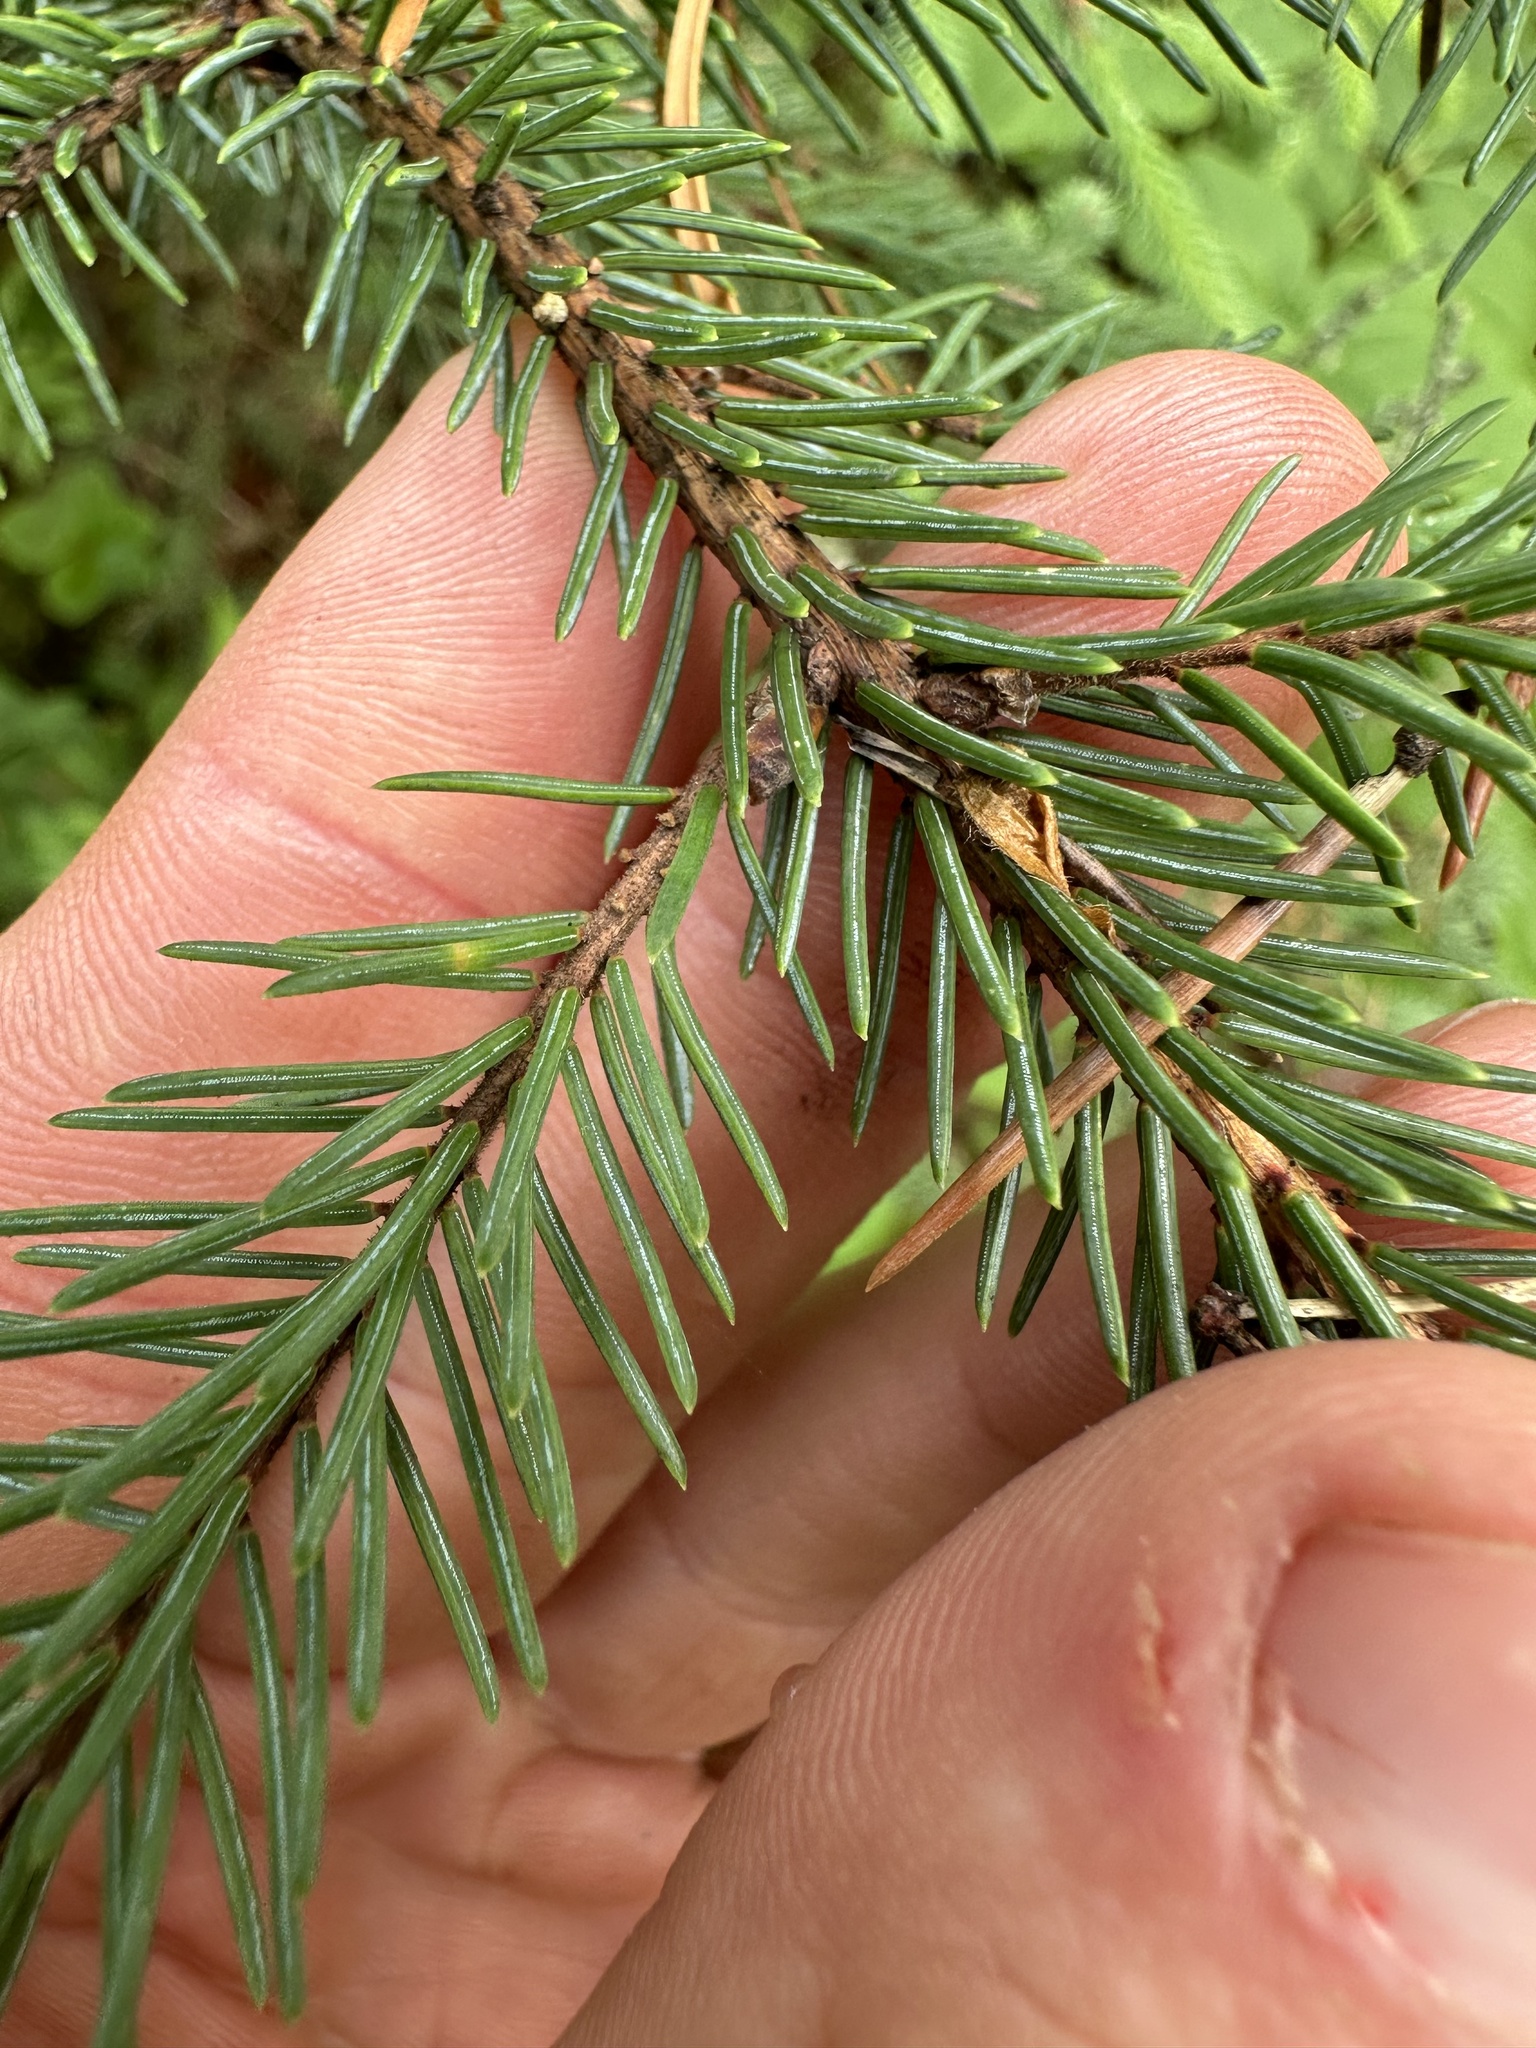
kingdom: Plantae
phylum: Tracheophyta
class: Pinopsida
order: Pinales
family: Pinaceae
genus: Picea
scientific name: Picea mariana
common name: Black spruce
